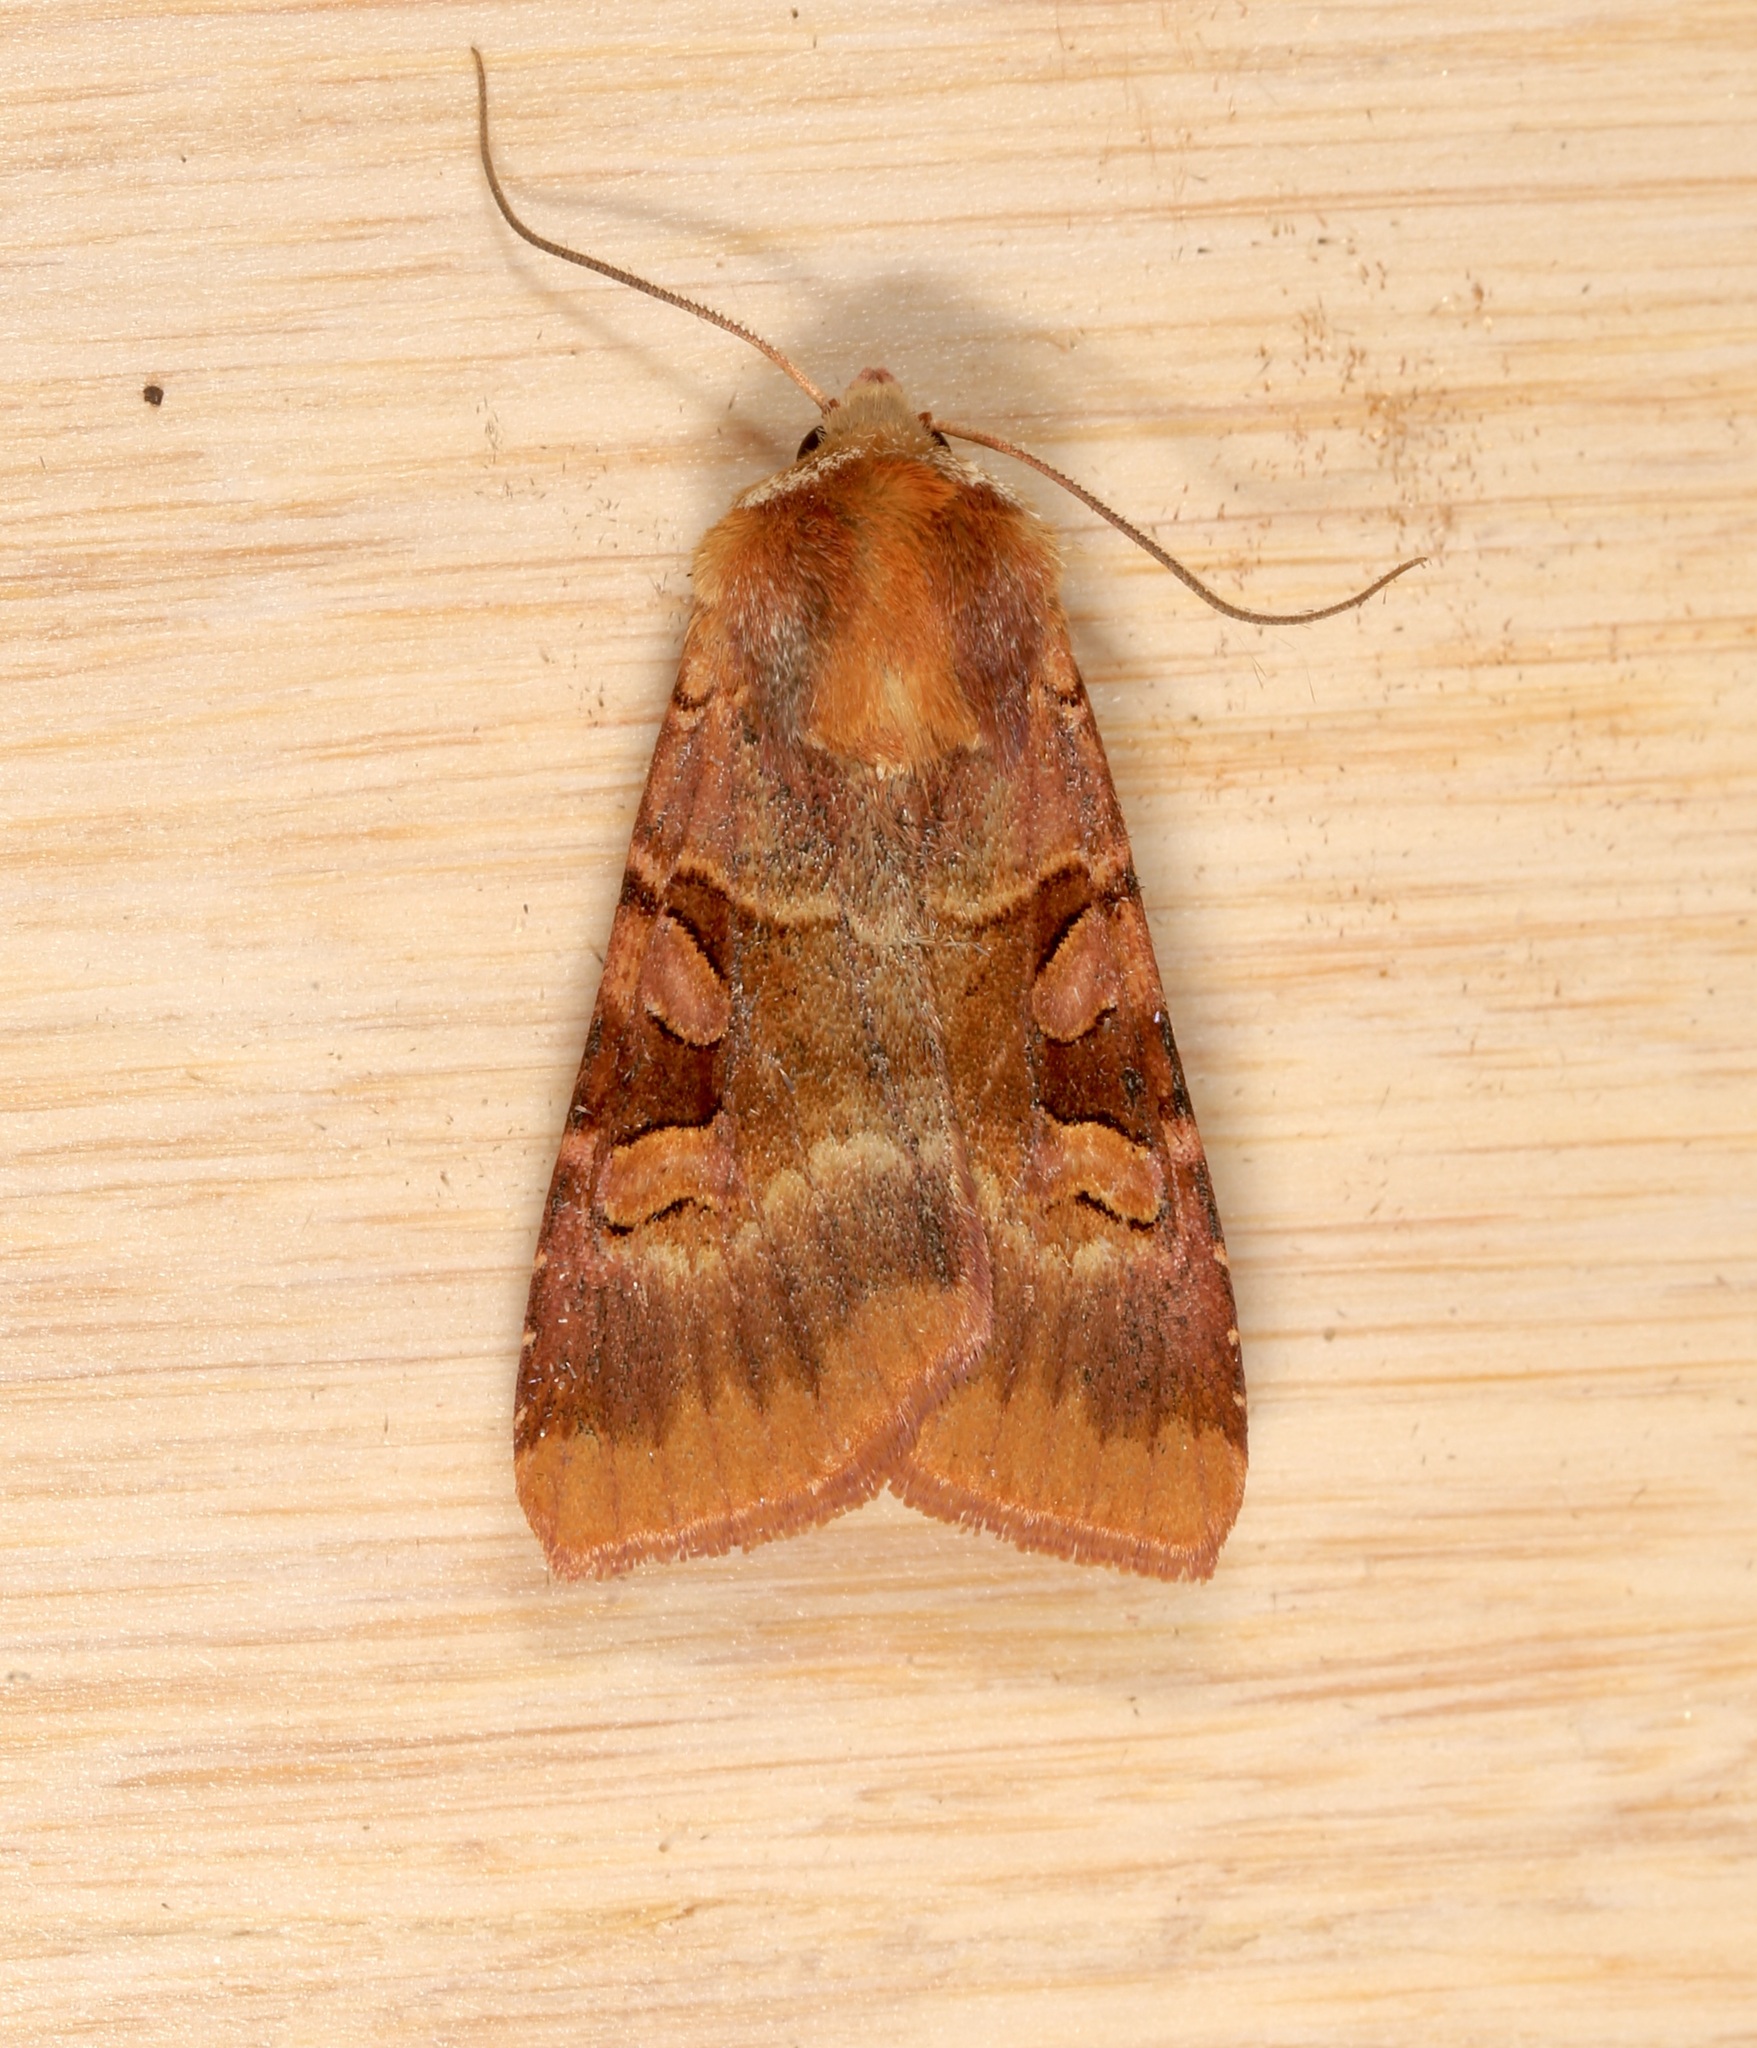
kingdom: Animalia
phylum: Arthropoda
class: Insecta
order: Lepidoptera
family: Noctuidae
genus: Xestia
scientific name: Xestia oblata
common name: Rosy dart
